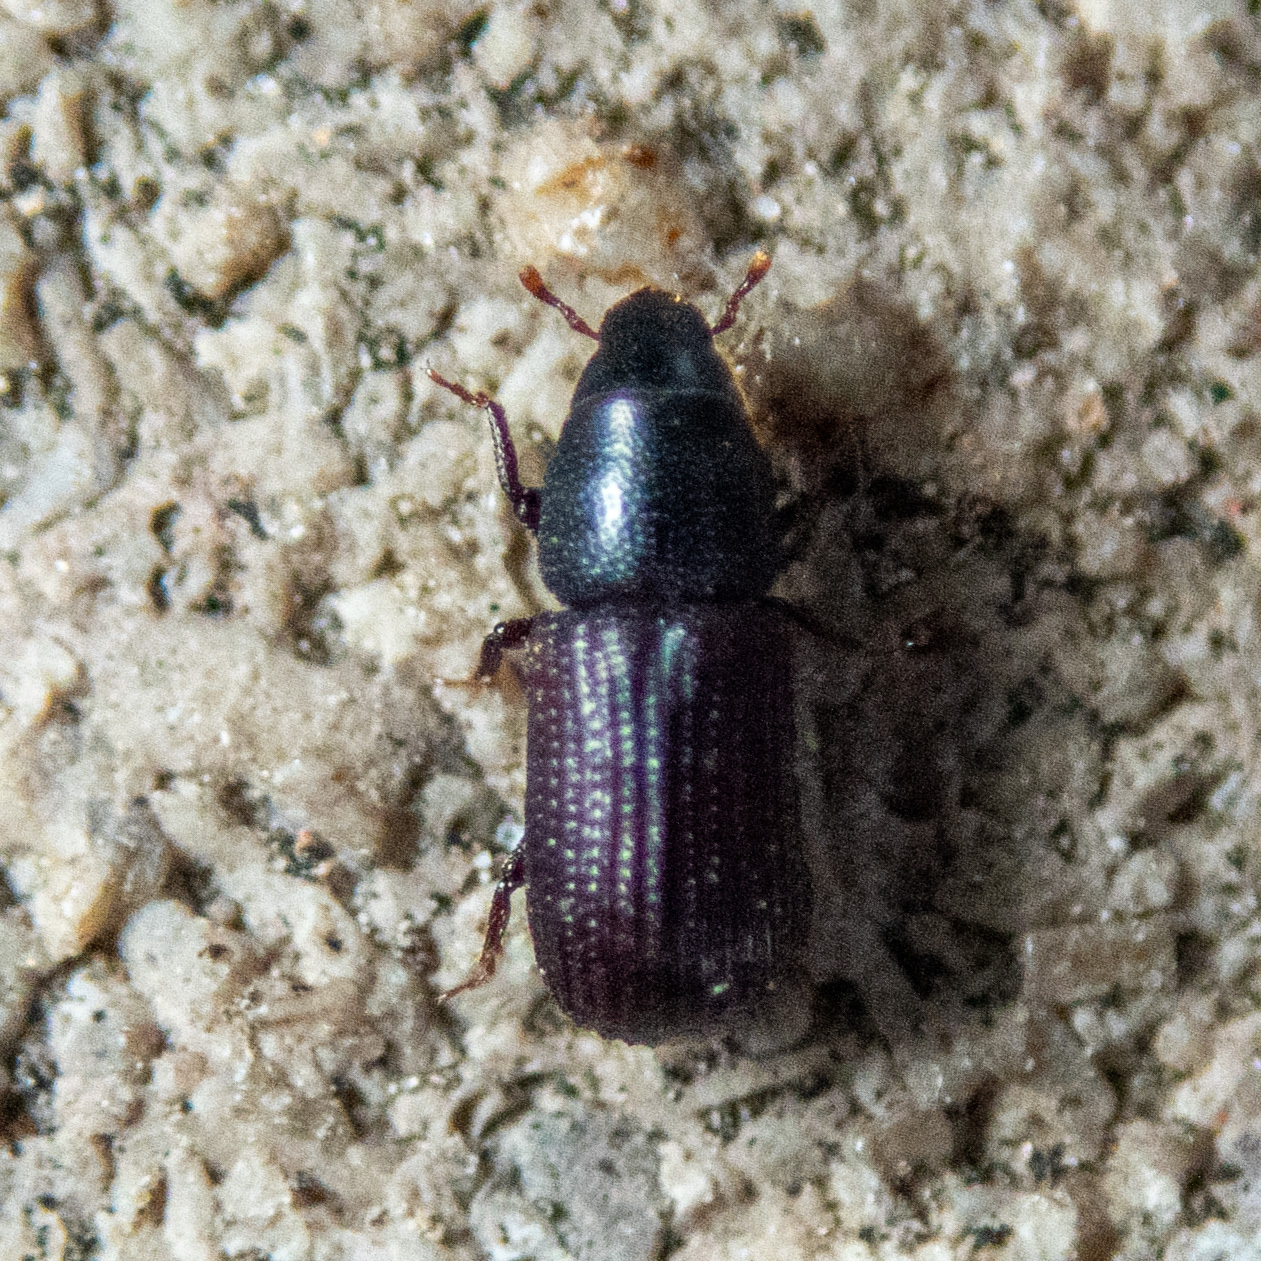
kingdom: Animalia
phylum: Arthropoda
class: Insecta
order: Coleoptera
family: Curculionidae
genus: Stenoscelis
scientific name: Stenoscelis brevis
